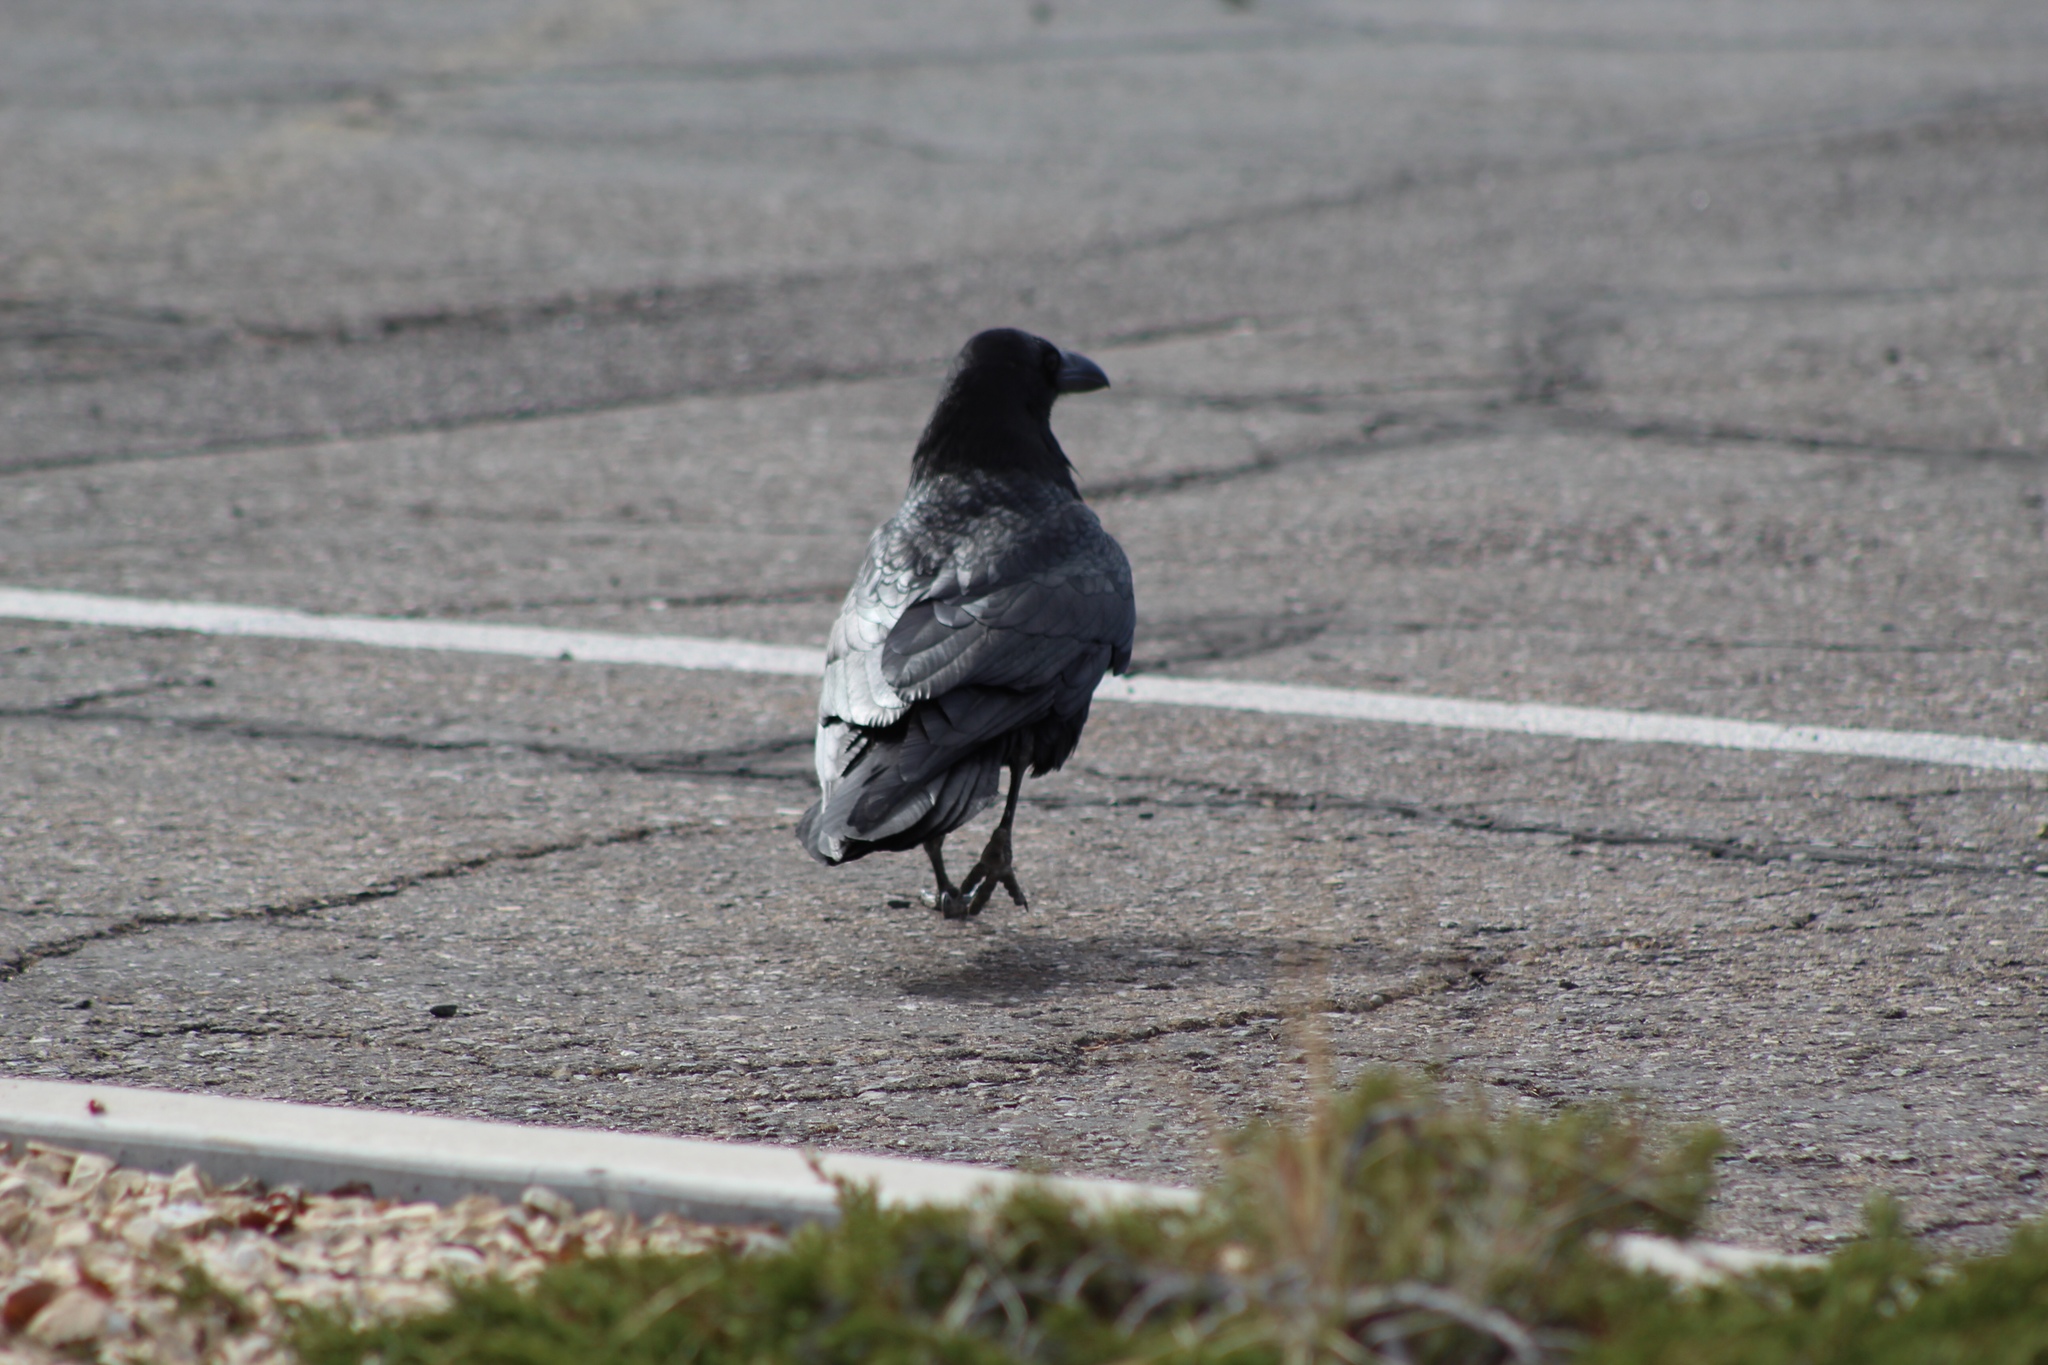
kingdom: Animalia
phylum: Chordata
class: Aves
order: Passeriformes
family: Corvidae
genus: Corvus
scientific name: Corvus corax
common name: Common raven
